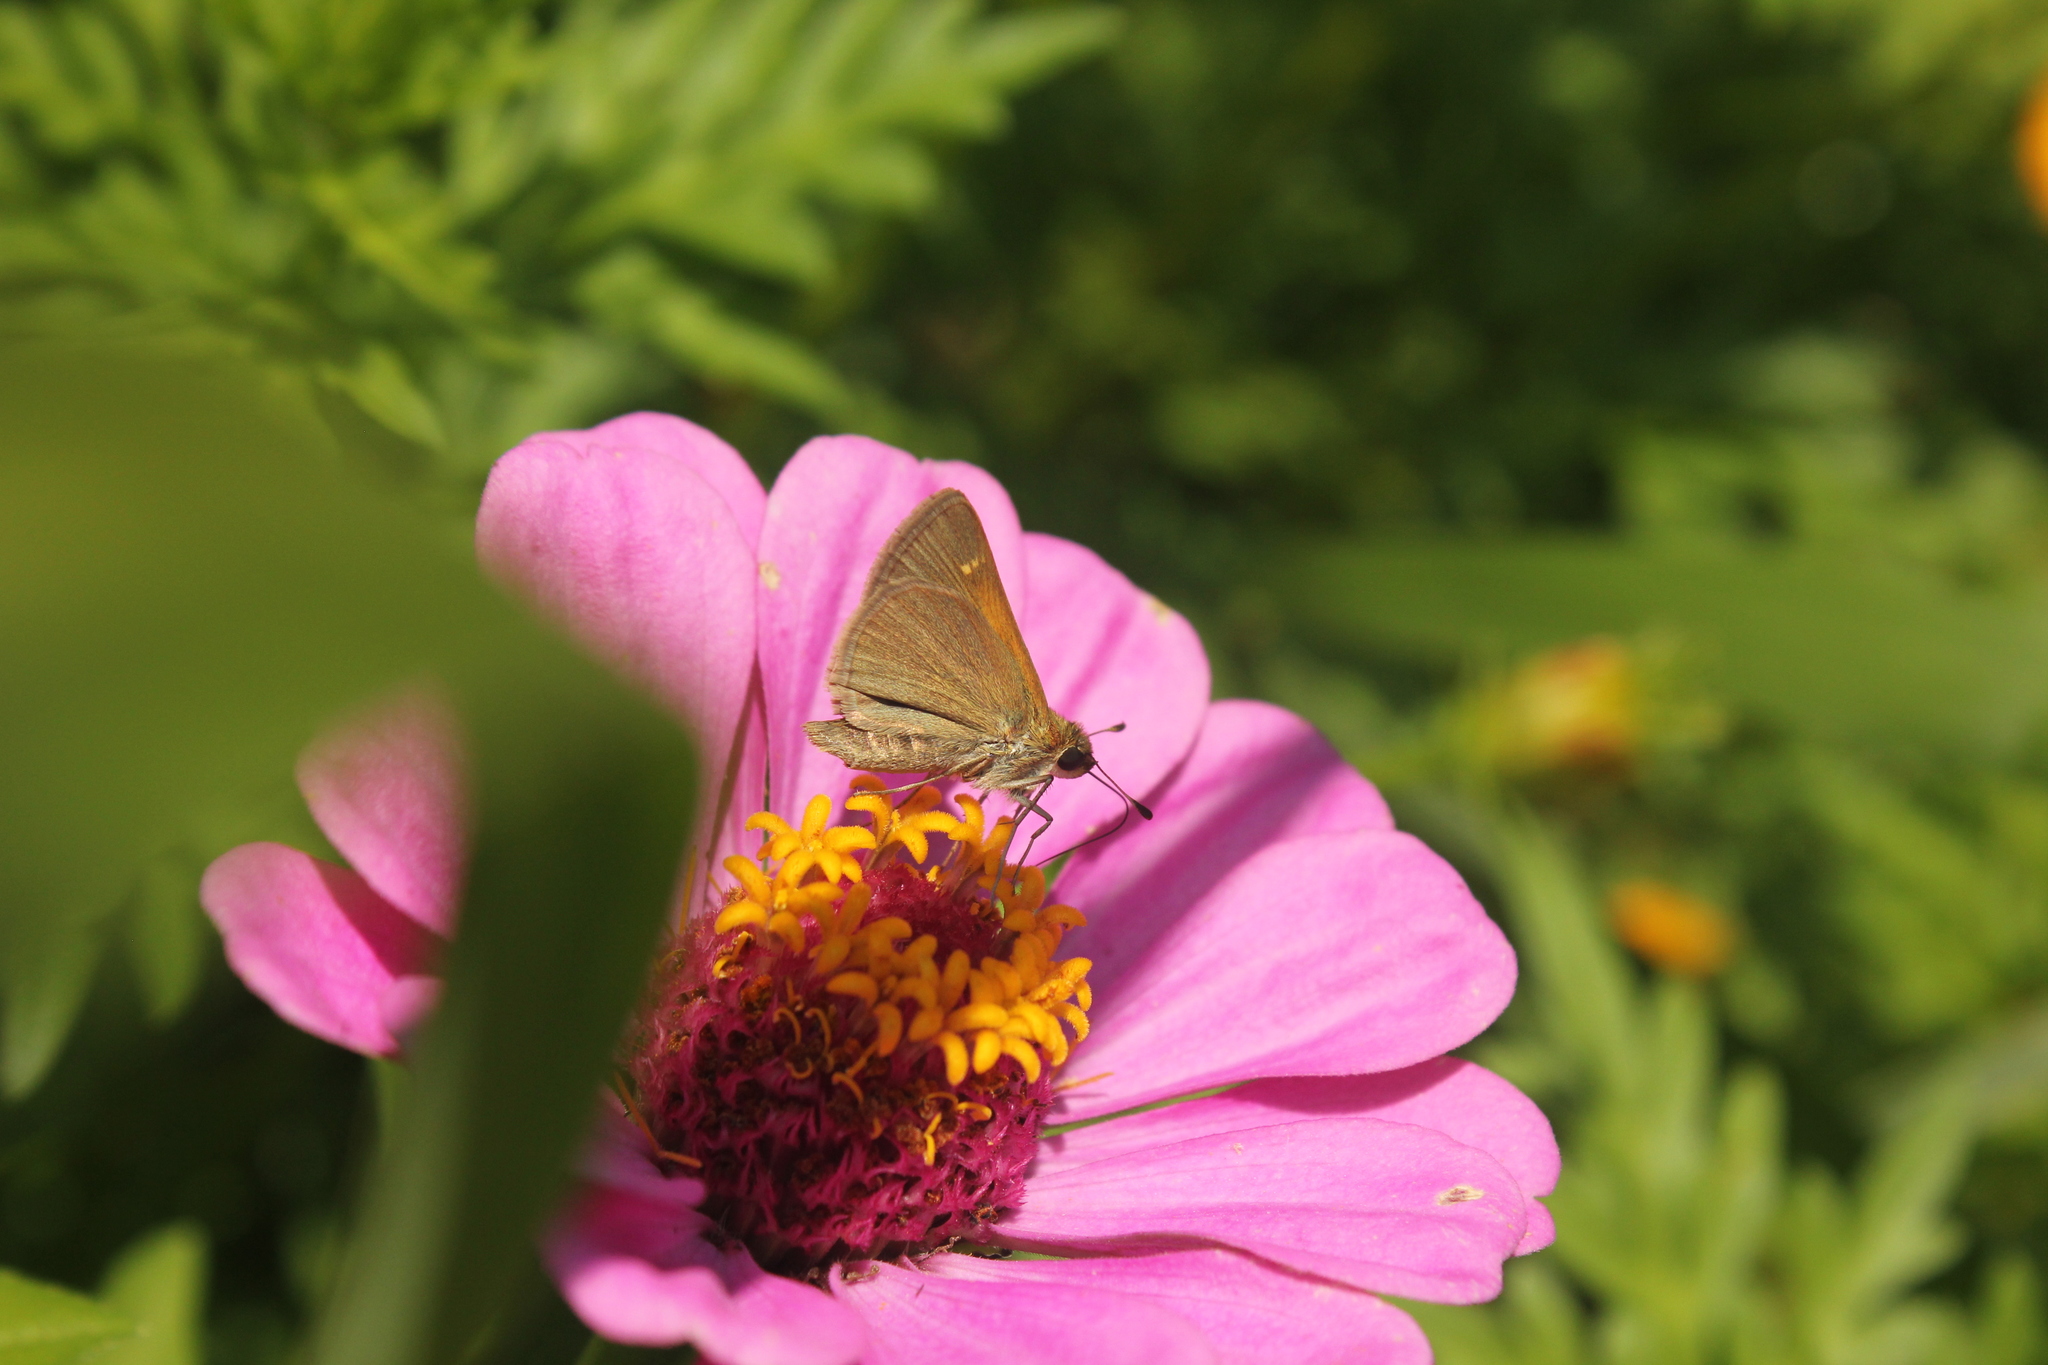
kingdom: Animalia
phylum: Arthropoda
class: Insecta
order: Lepidoptera
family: Hesperiidae
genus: Polites
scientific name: Polites themistocles
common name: Tawny-edged skipper
